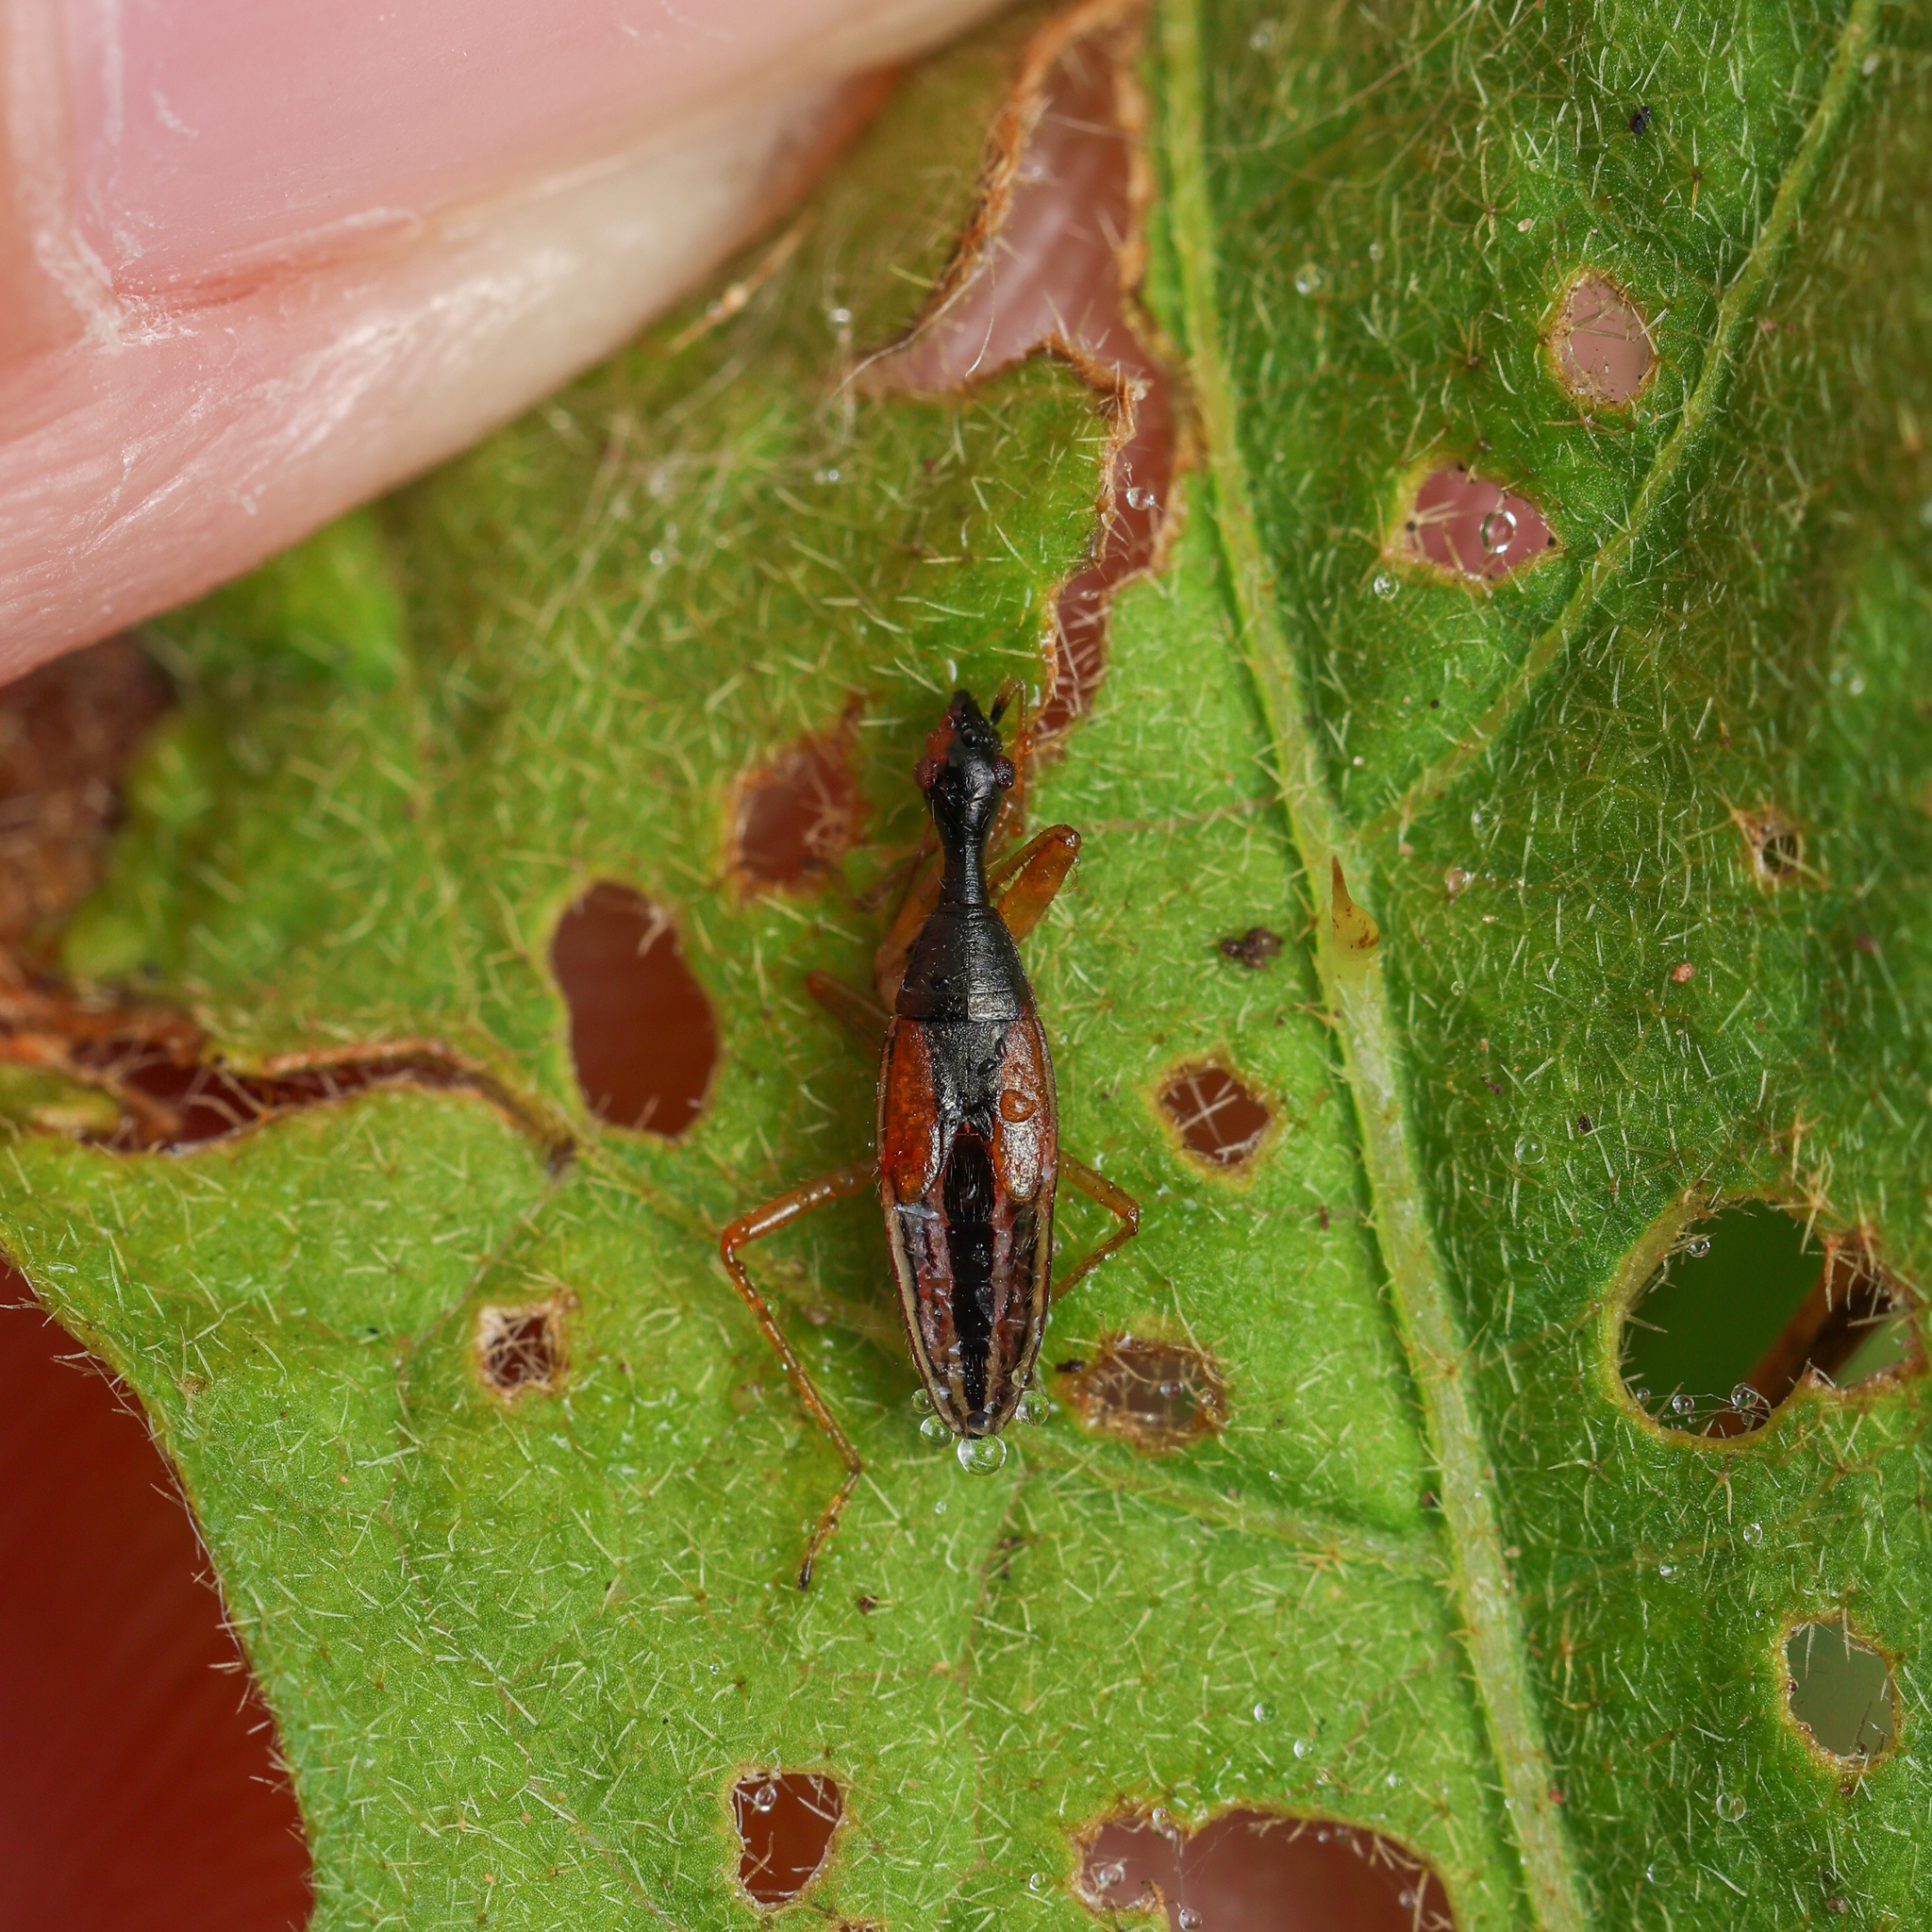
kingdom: Animalia
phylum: Arthropoda
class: Insecta
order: Hemiptera
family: Rhyparochromidae
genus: Myodocha
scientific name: Myodocha serripes
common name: Long-necked seed bug
